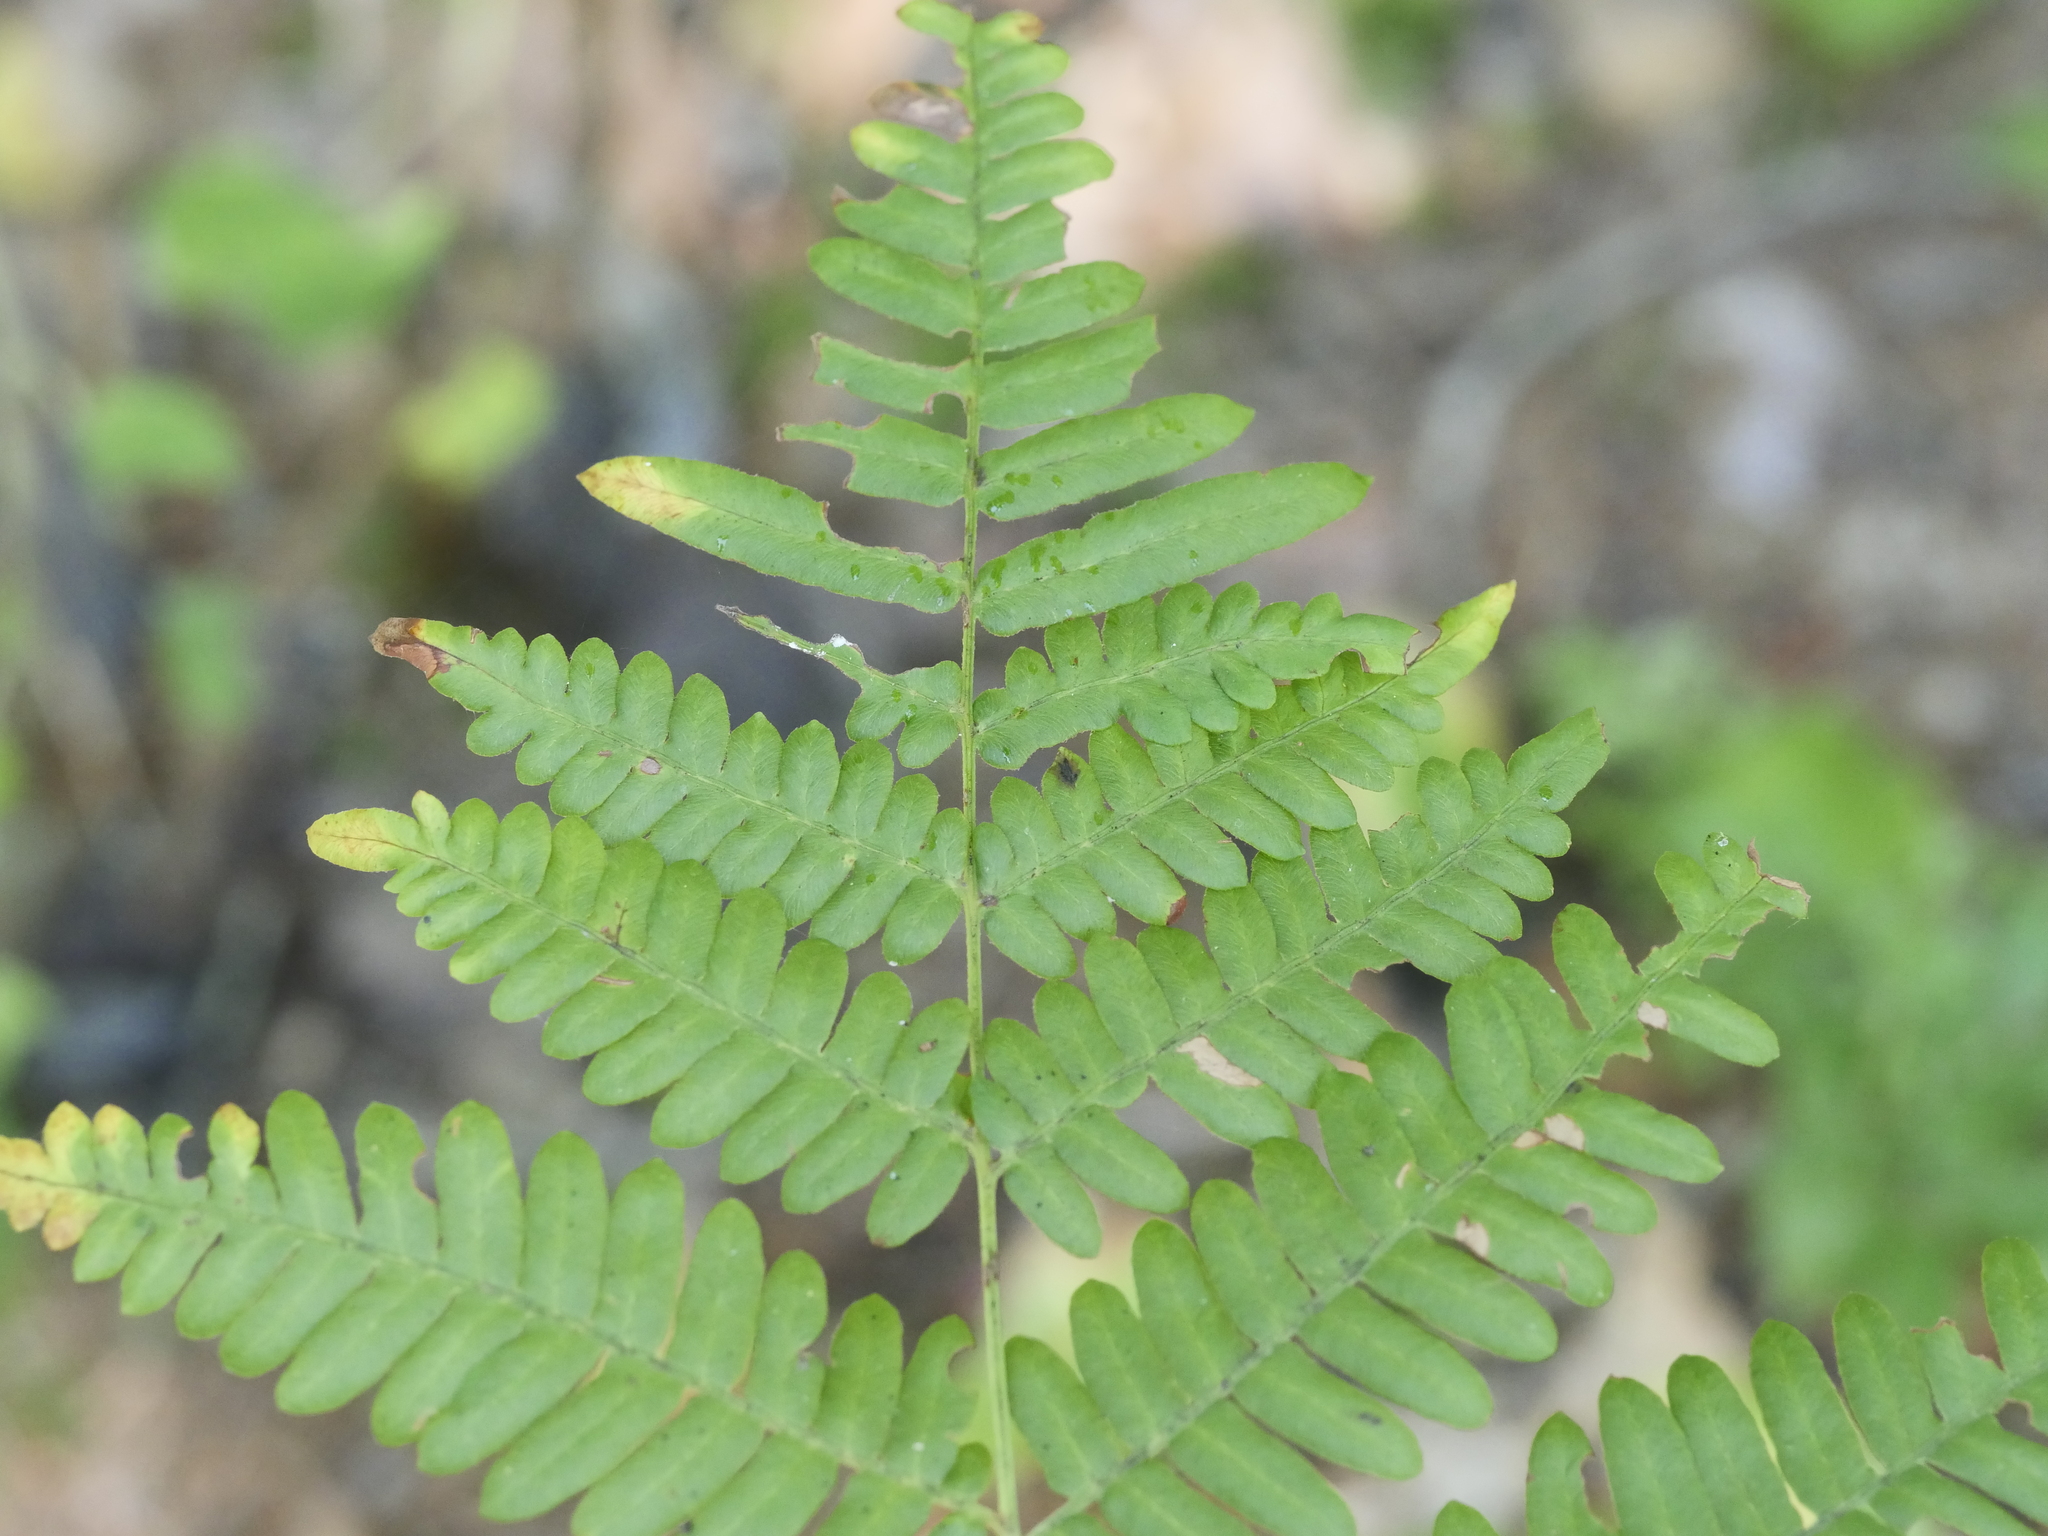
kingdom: Plantae
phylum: Tracheophyta
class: Polypodiopsida
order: Polypodiales
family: Dennstaedtiaceae
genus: Pteridium
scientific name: Pteridium aquilinum
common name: Bracken
